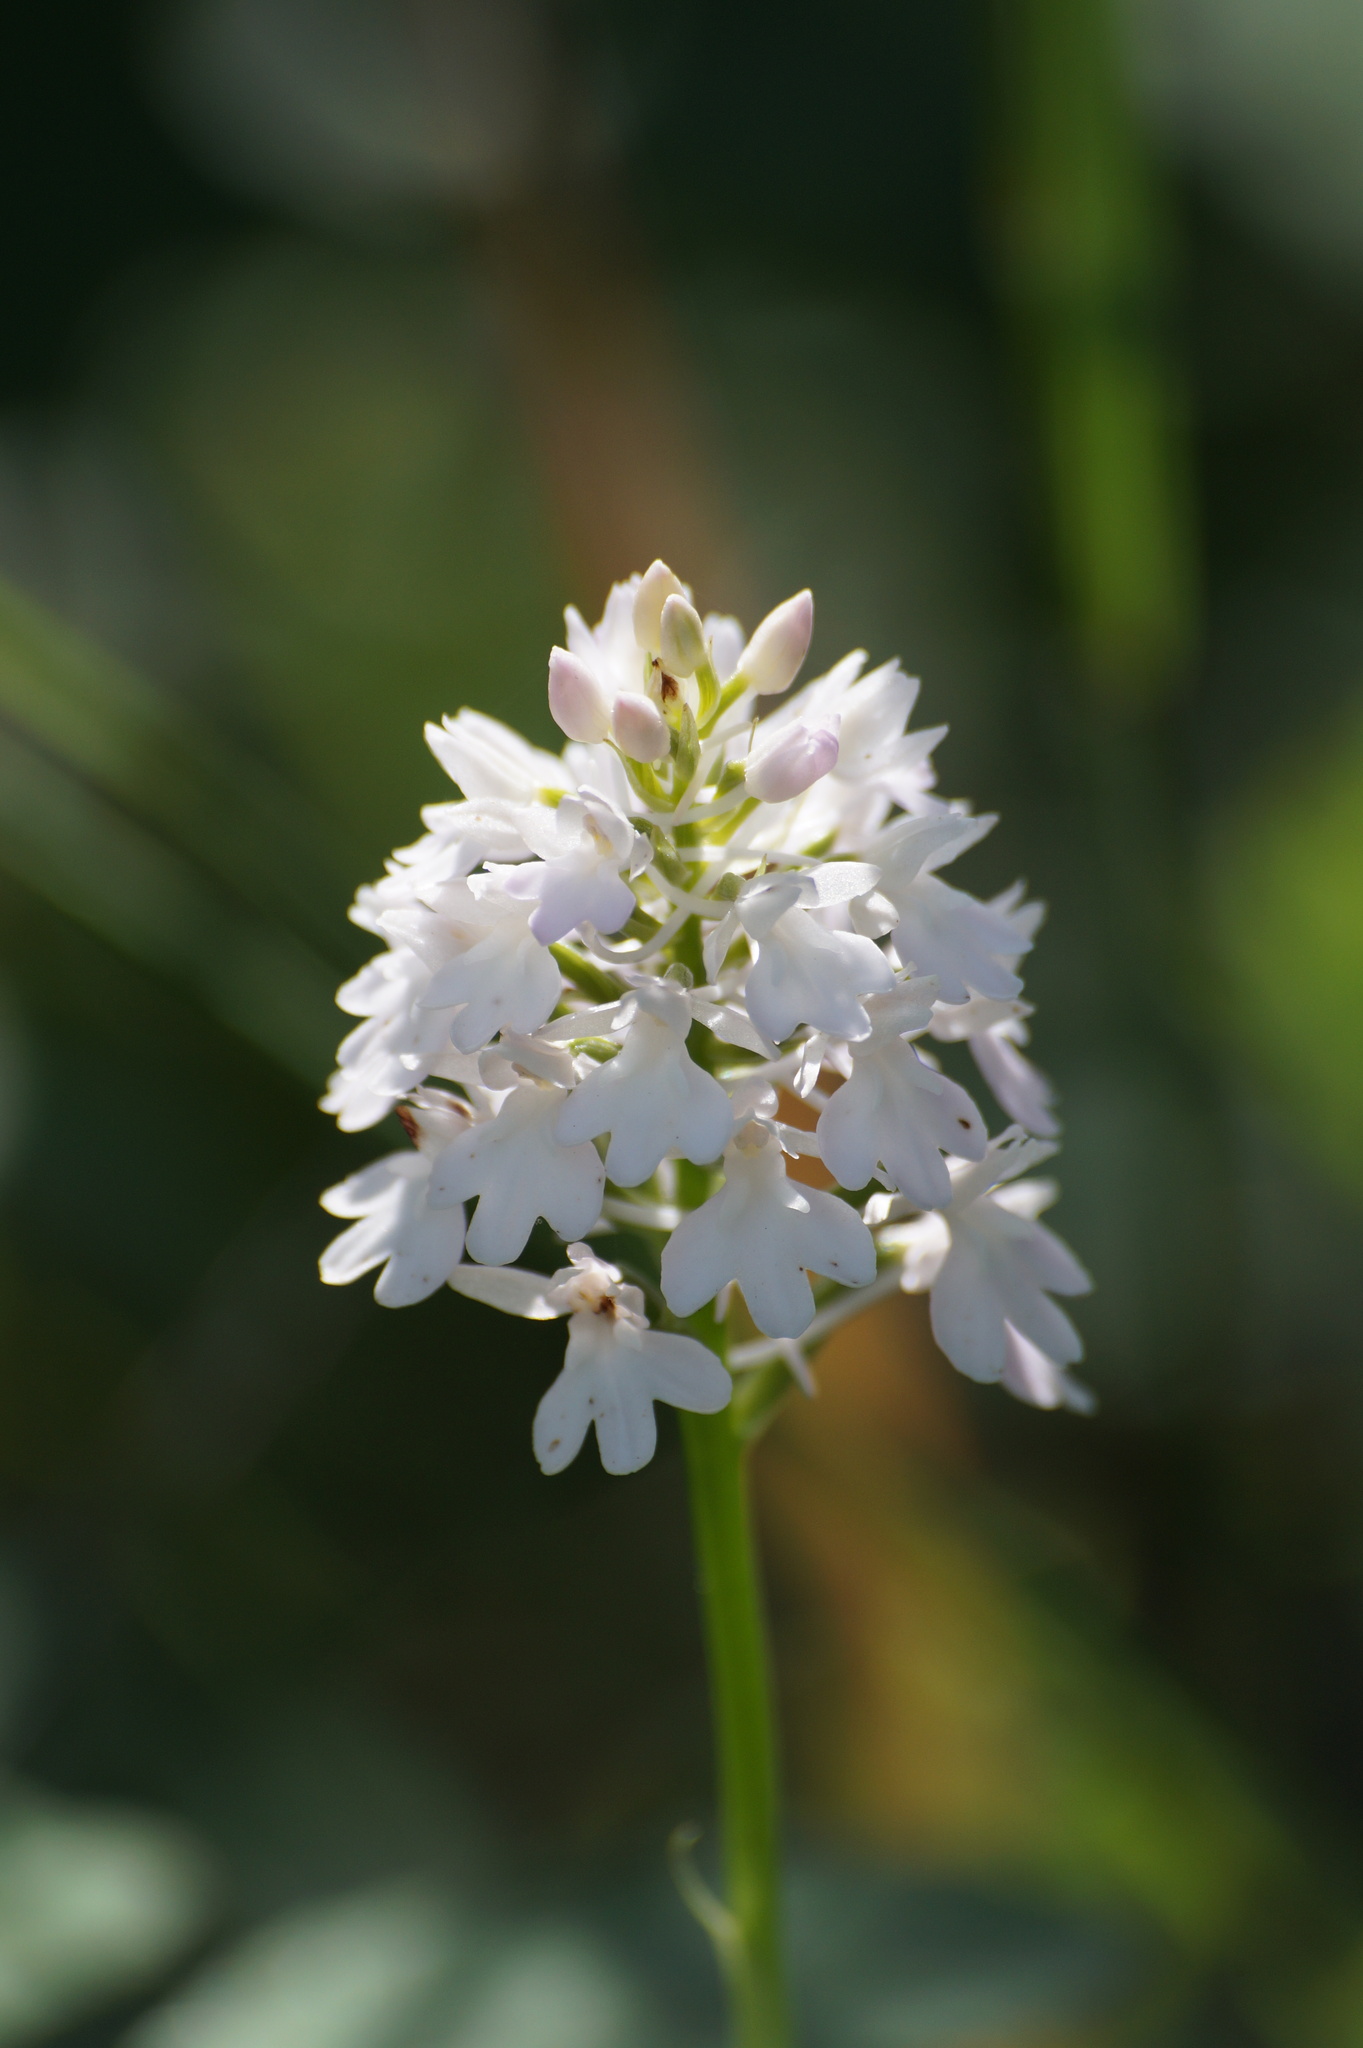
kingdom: Plantae
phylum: Tracheophyta
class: Liliopsida
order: Asparagales
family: Orchidaceae
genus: Anacamptis
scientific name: Anacamptis pyramidalis
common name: Pyramidal orchid
